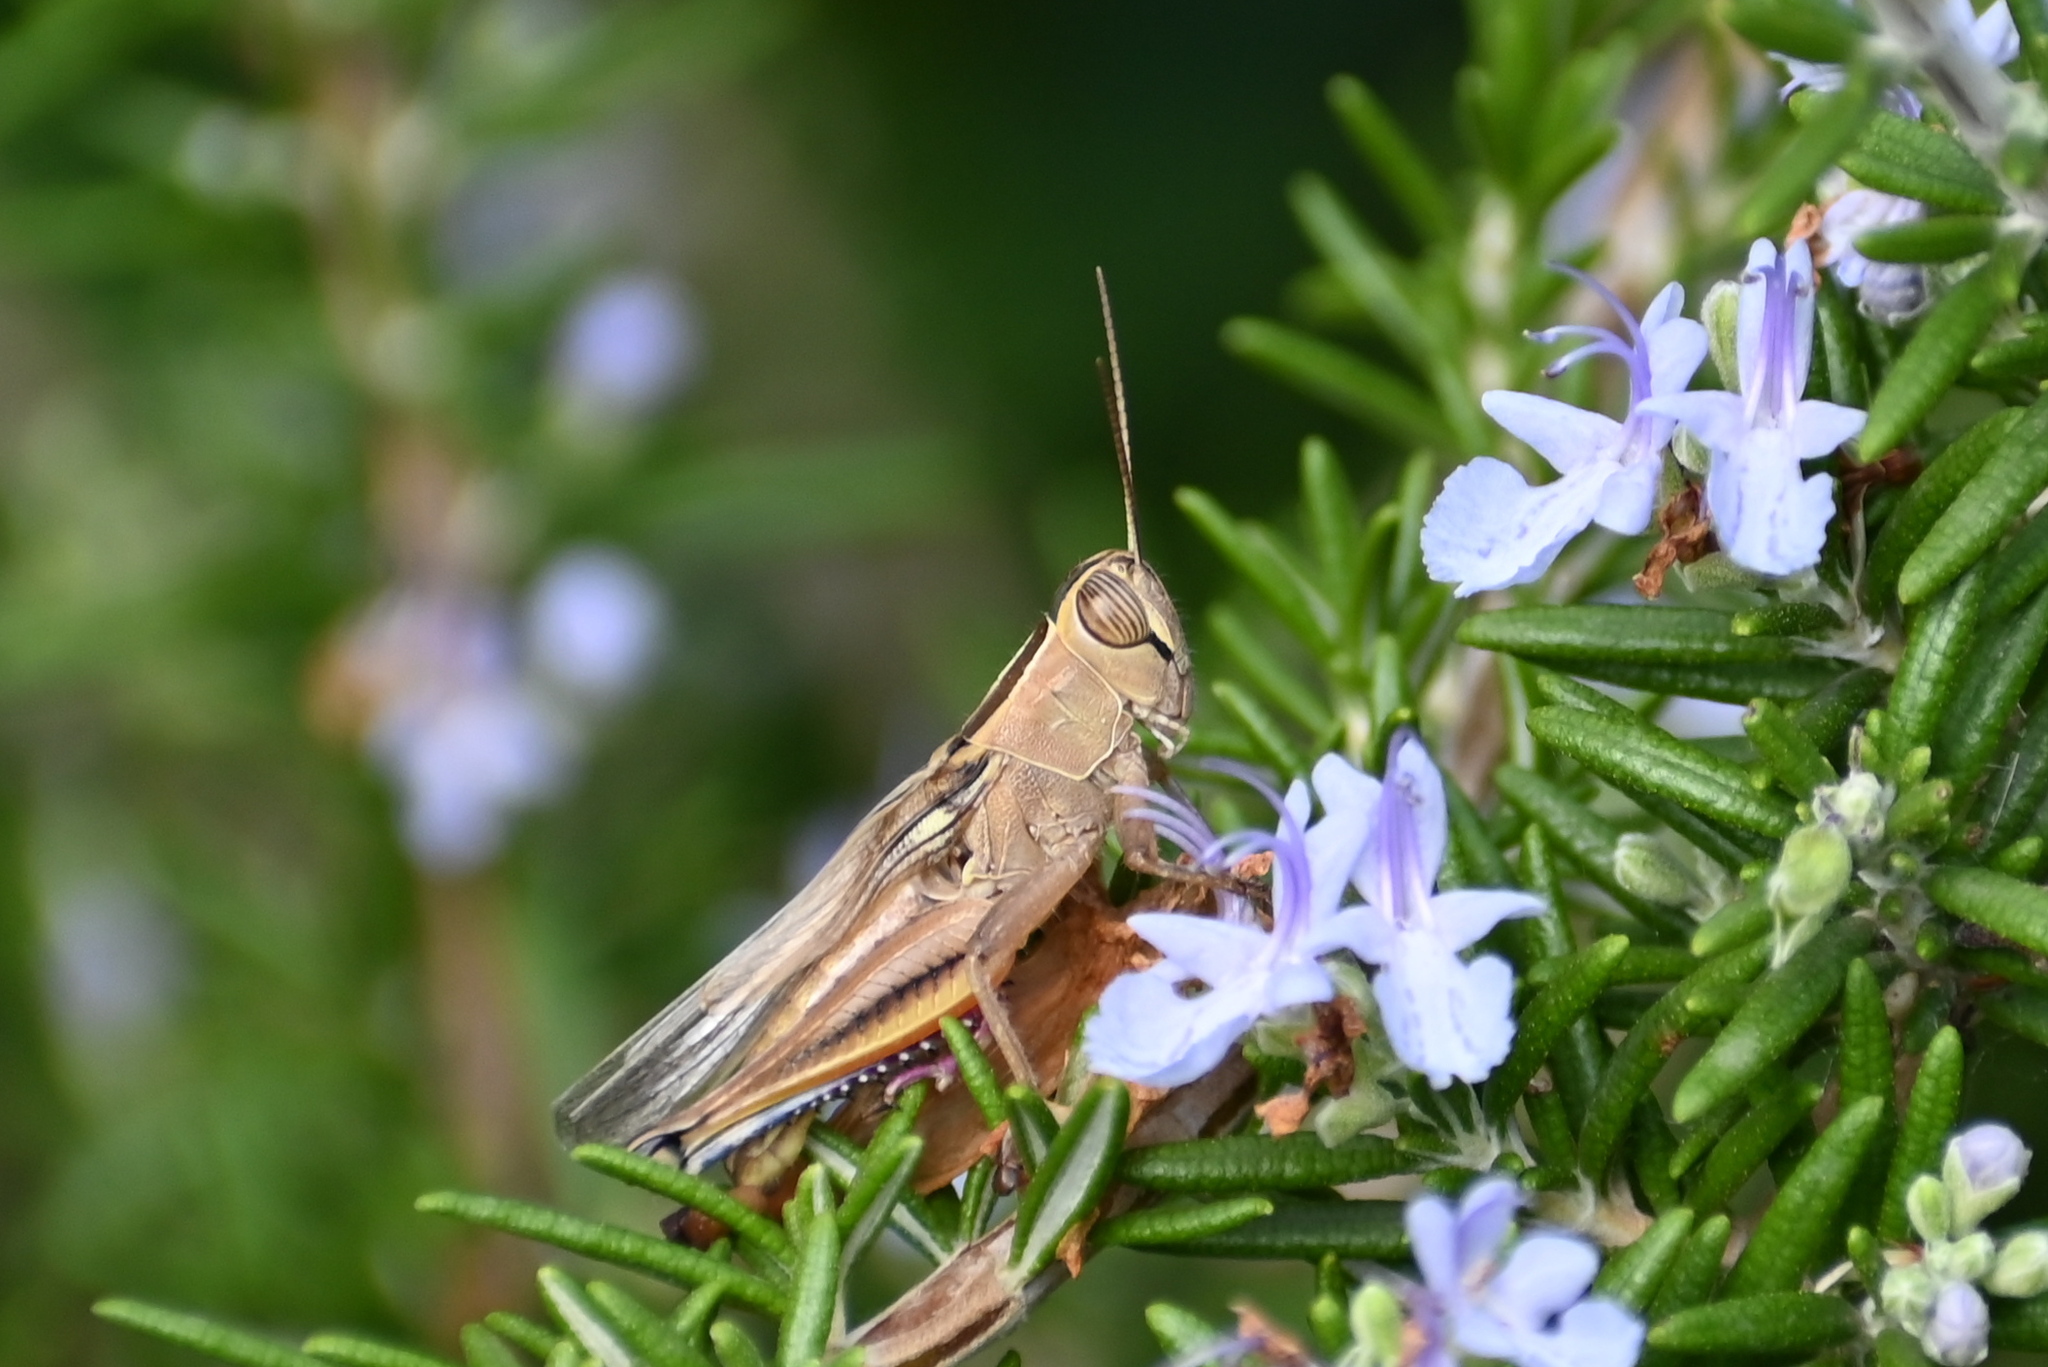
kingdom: Animalia
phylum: Arthropoda
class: Insecta
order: Orthoptera
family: Acrididae
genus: Eyprepocnemis
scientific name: Eyprepocnemis plorans
